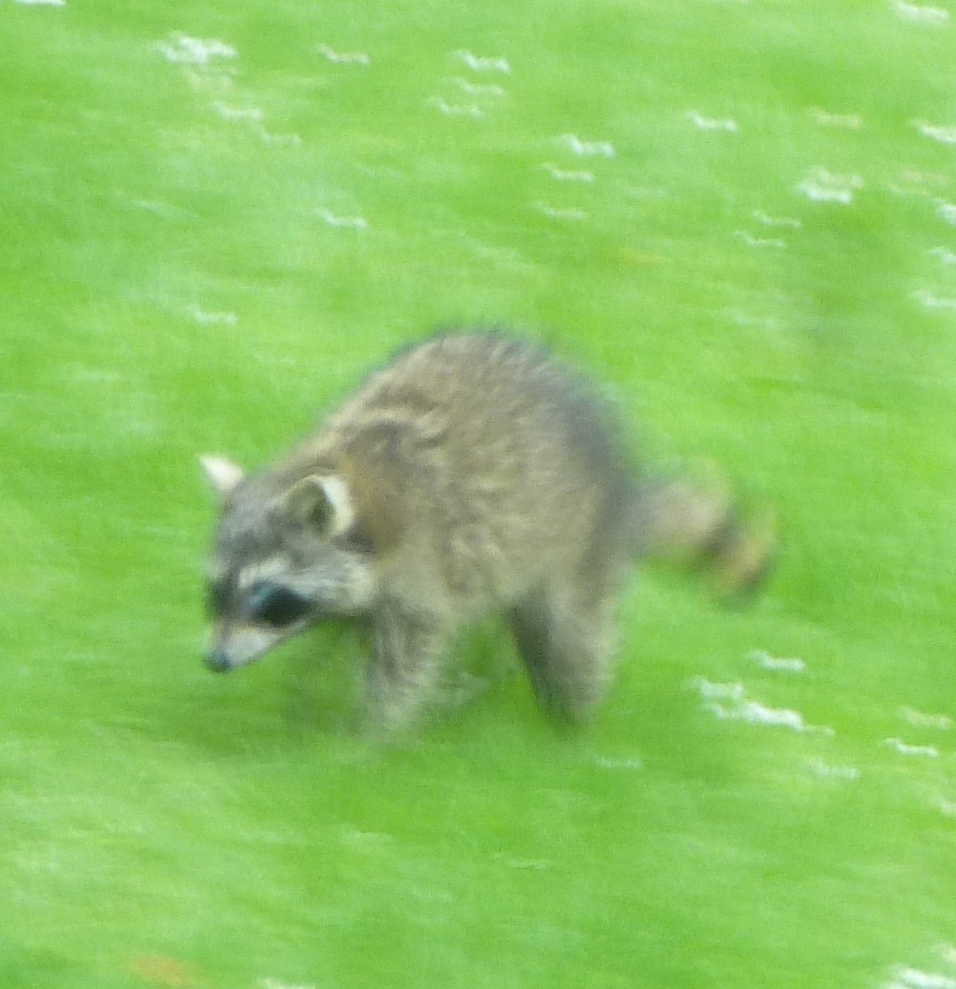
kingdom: Animalia
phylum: Chordata
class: Mammalia
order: Carnivora
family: Procyonidae
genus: Procyon
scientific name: Procyon lotor
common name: Raccoon
